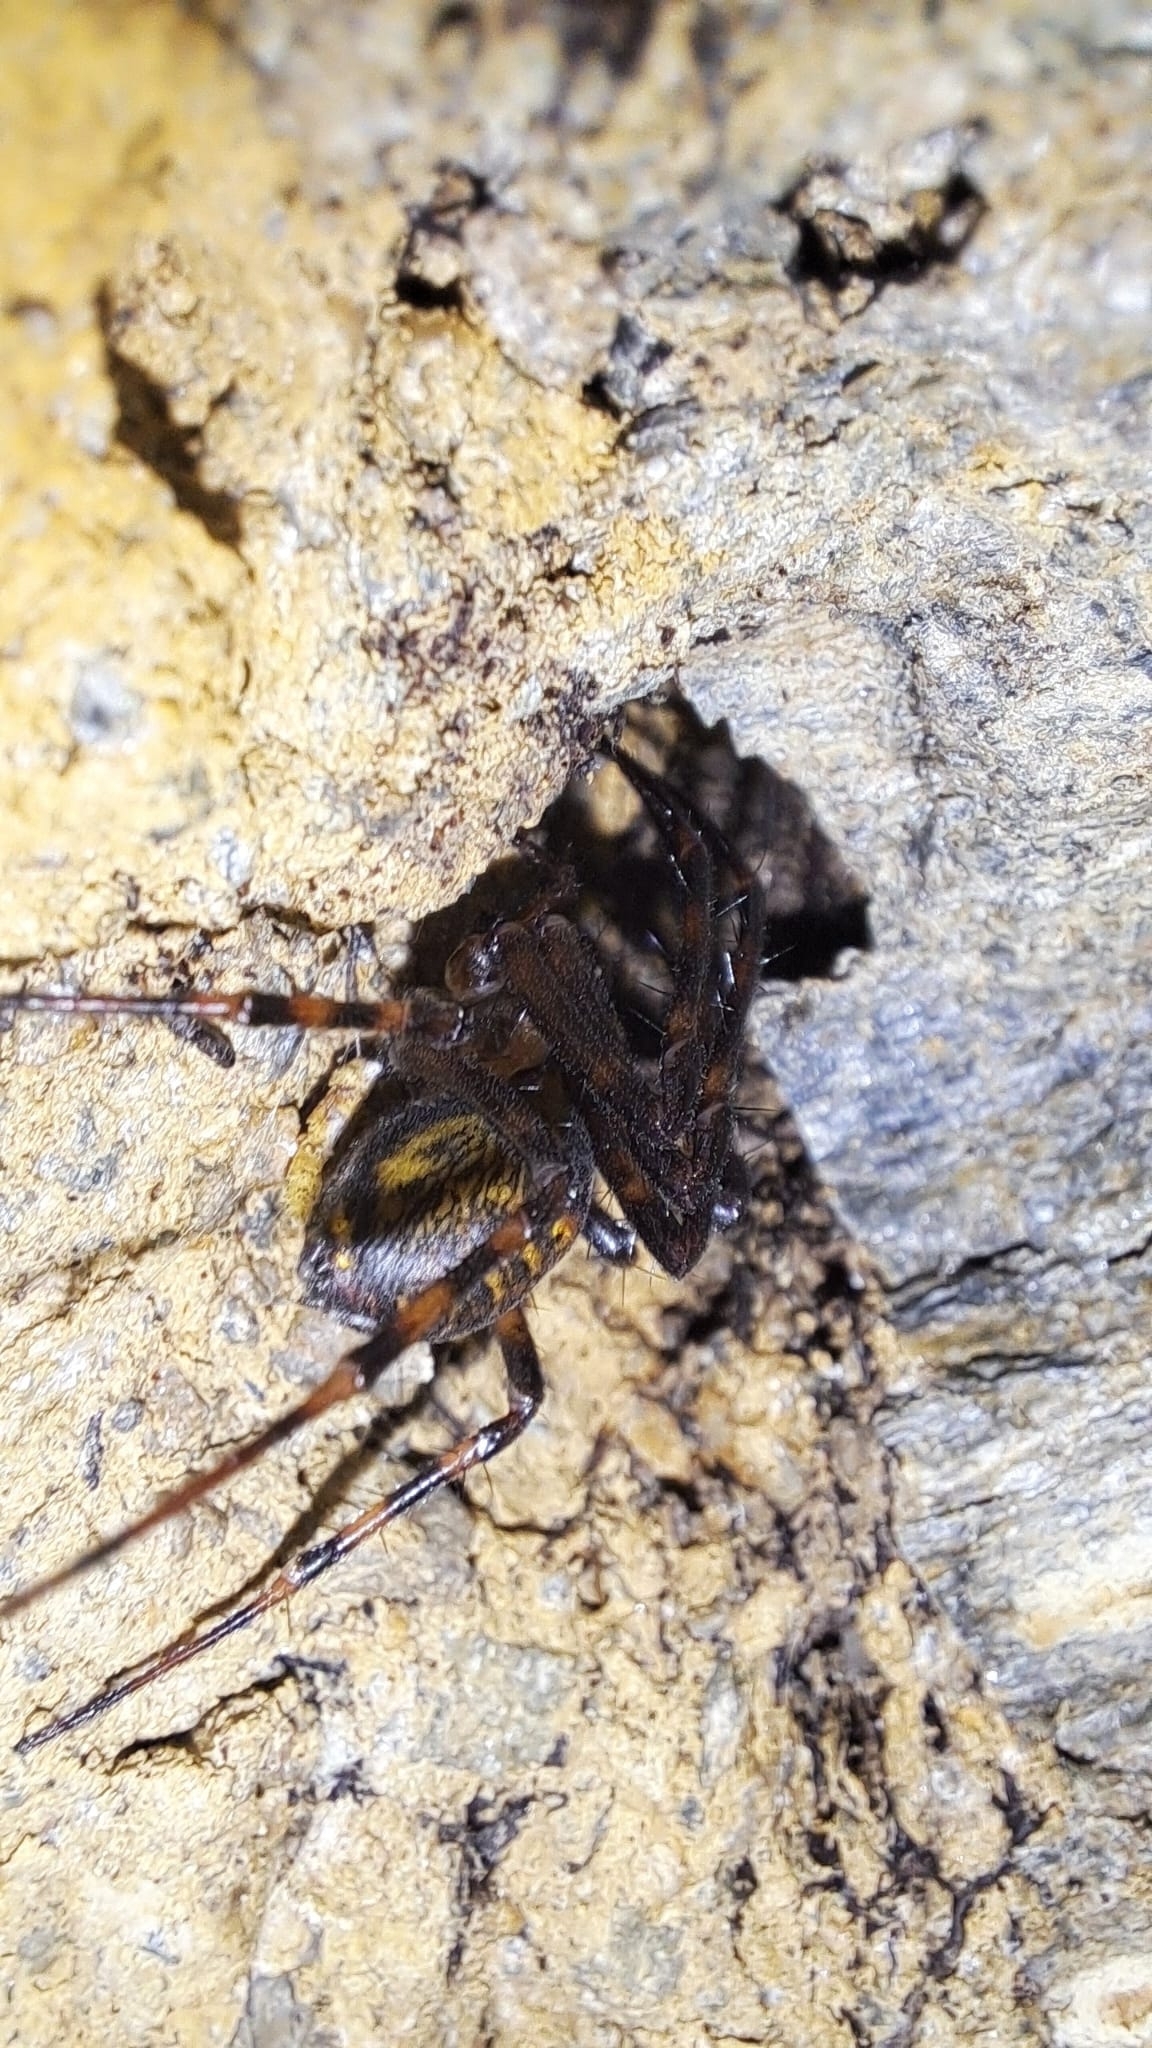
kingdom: Animalia
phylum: Arthropoda
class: Arachnida
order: Araneae
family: Tetragnathidae
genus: Meta
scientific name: Meta menardi
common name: Cave spider
